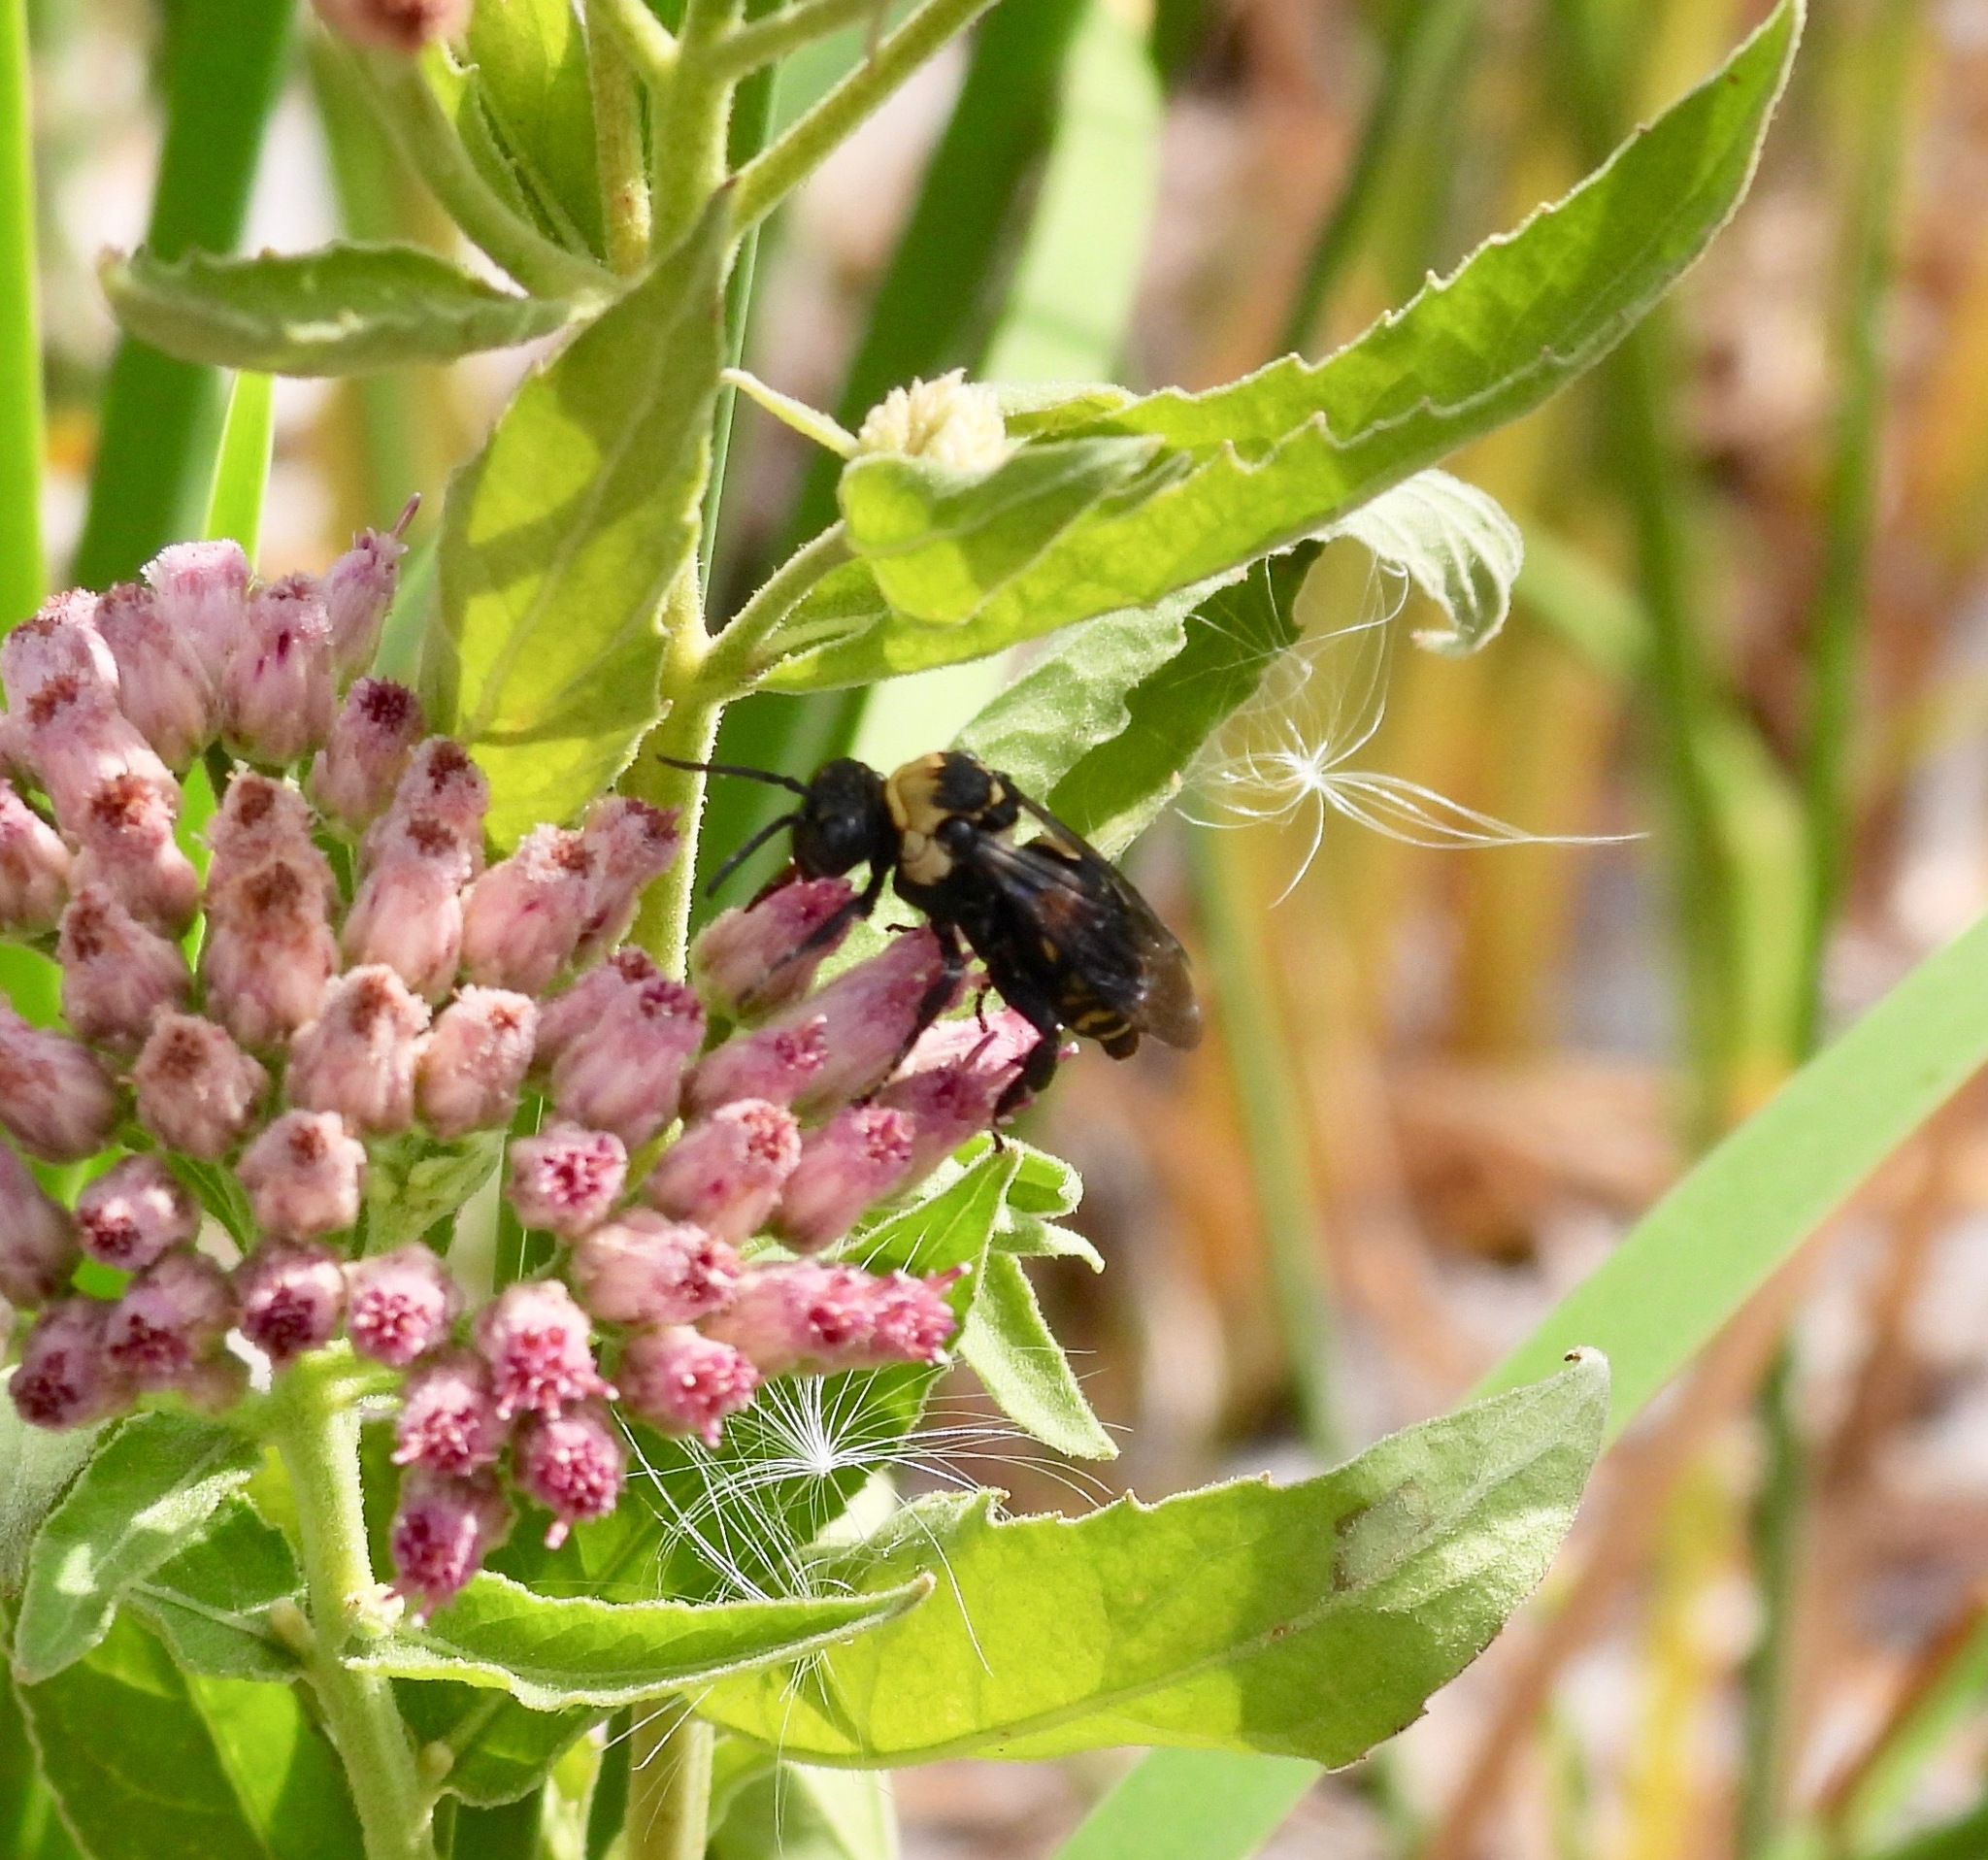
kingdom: Animalia
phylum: Arthropoda
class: Insecta
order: Hymenoptera
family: Apidae
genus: Triepeolus
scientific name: Triepeolus concavus
